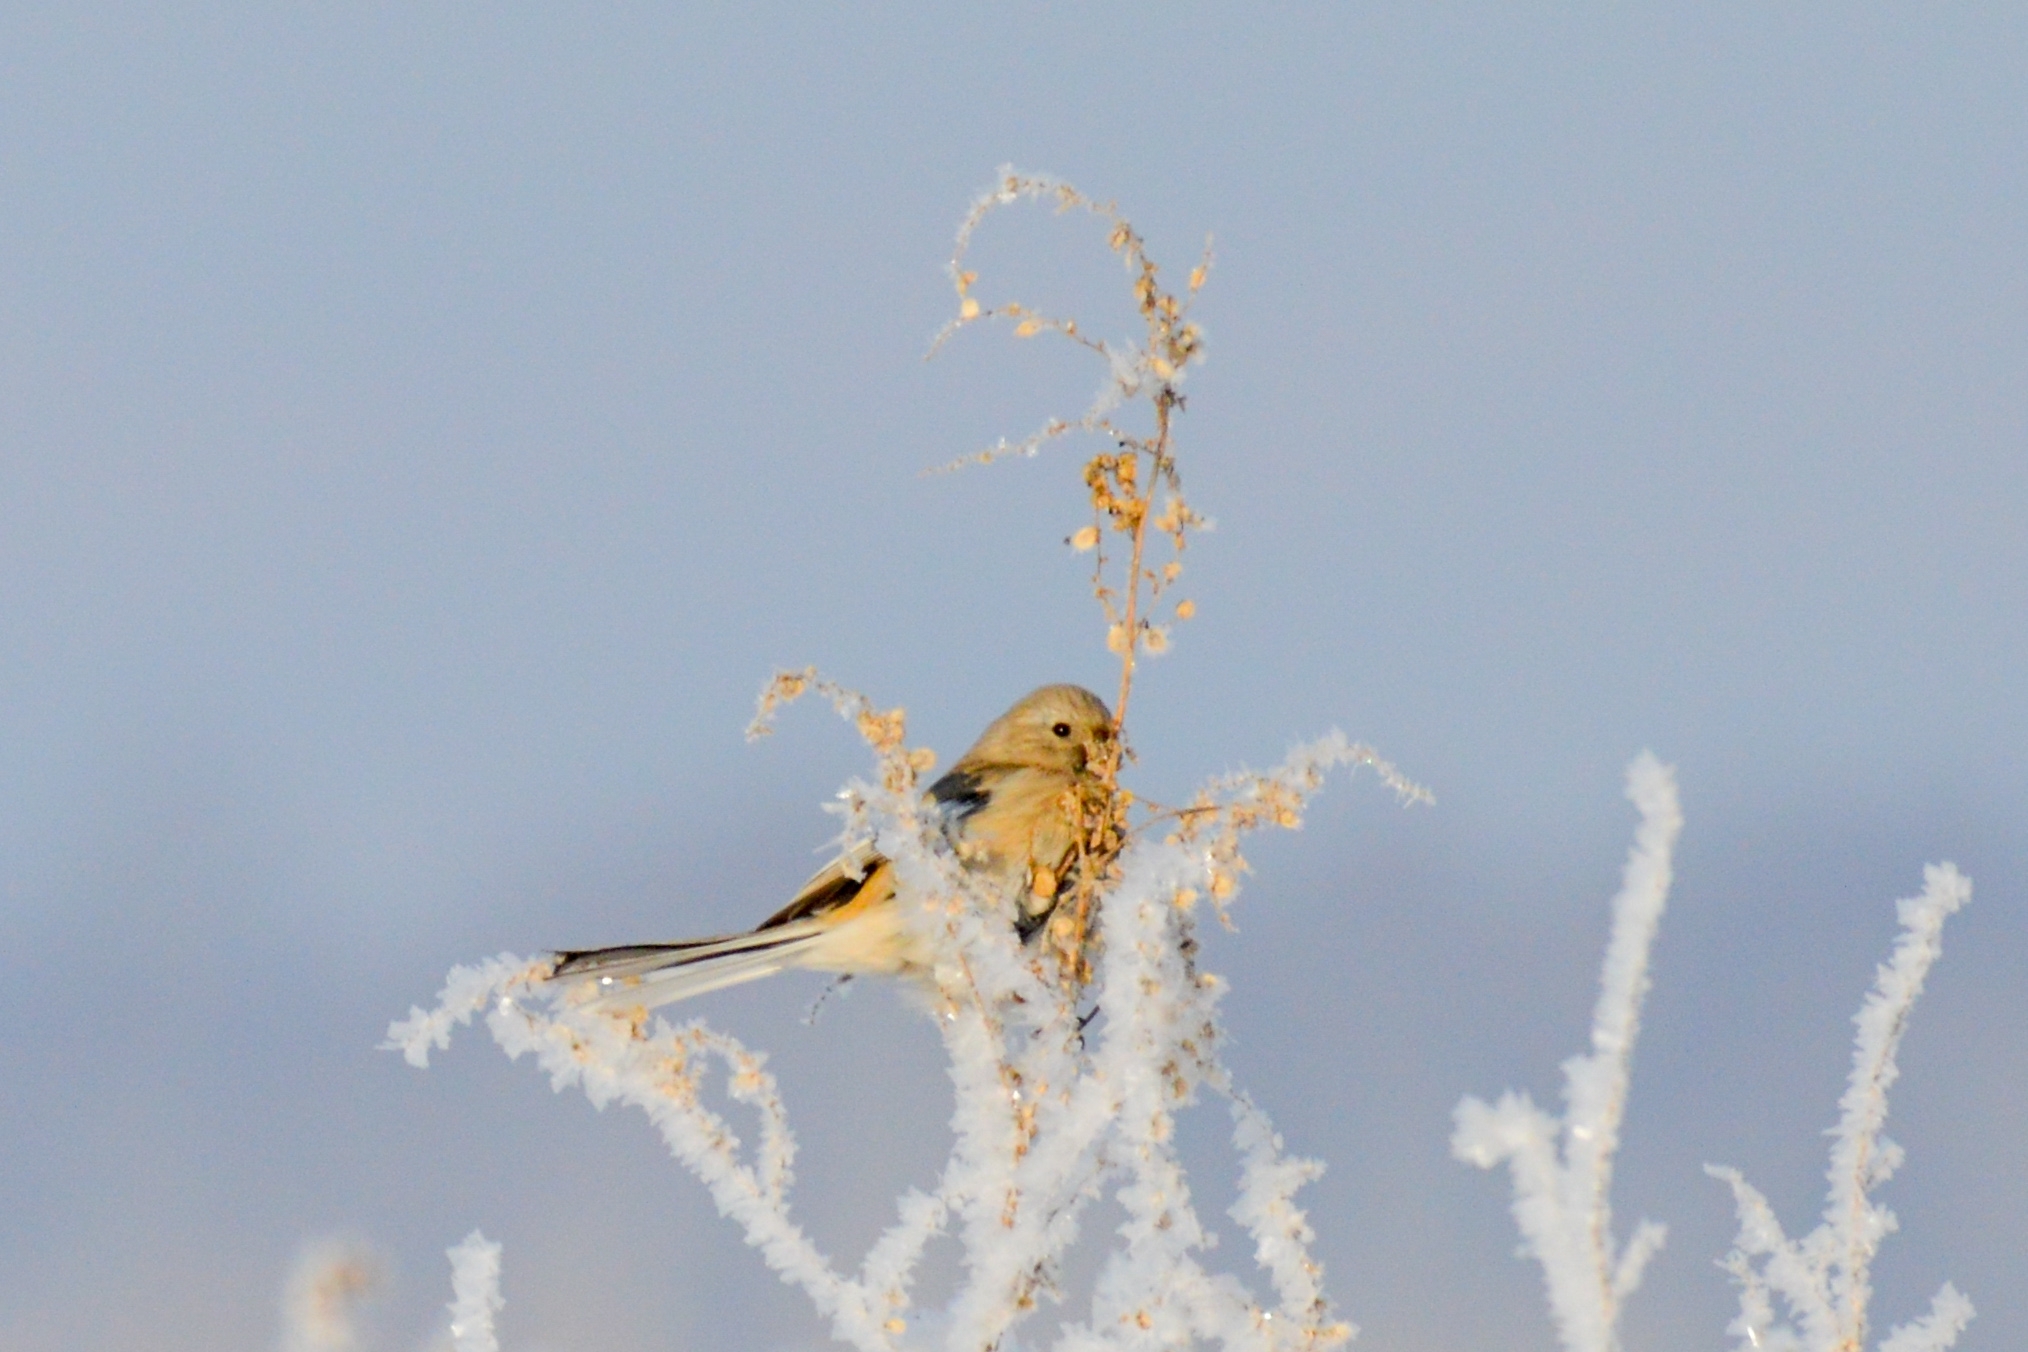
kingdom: Animalia
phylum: Chordata
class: Aves
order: Passeriformes
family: Fringillidae
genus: Carpodacus
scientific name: Carpodacus sibiricus
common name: Long-tailed rosefinch
